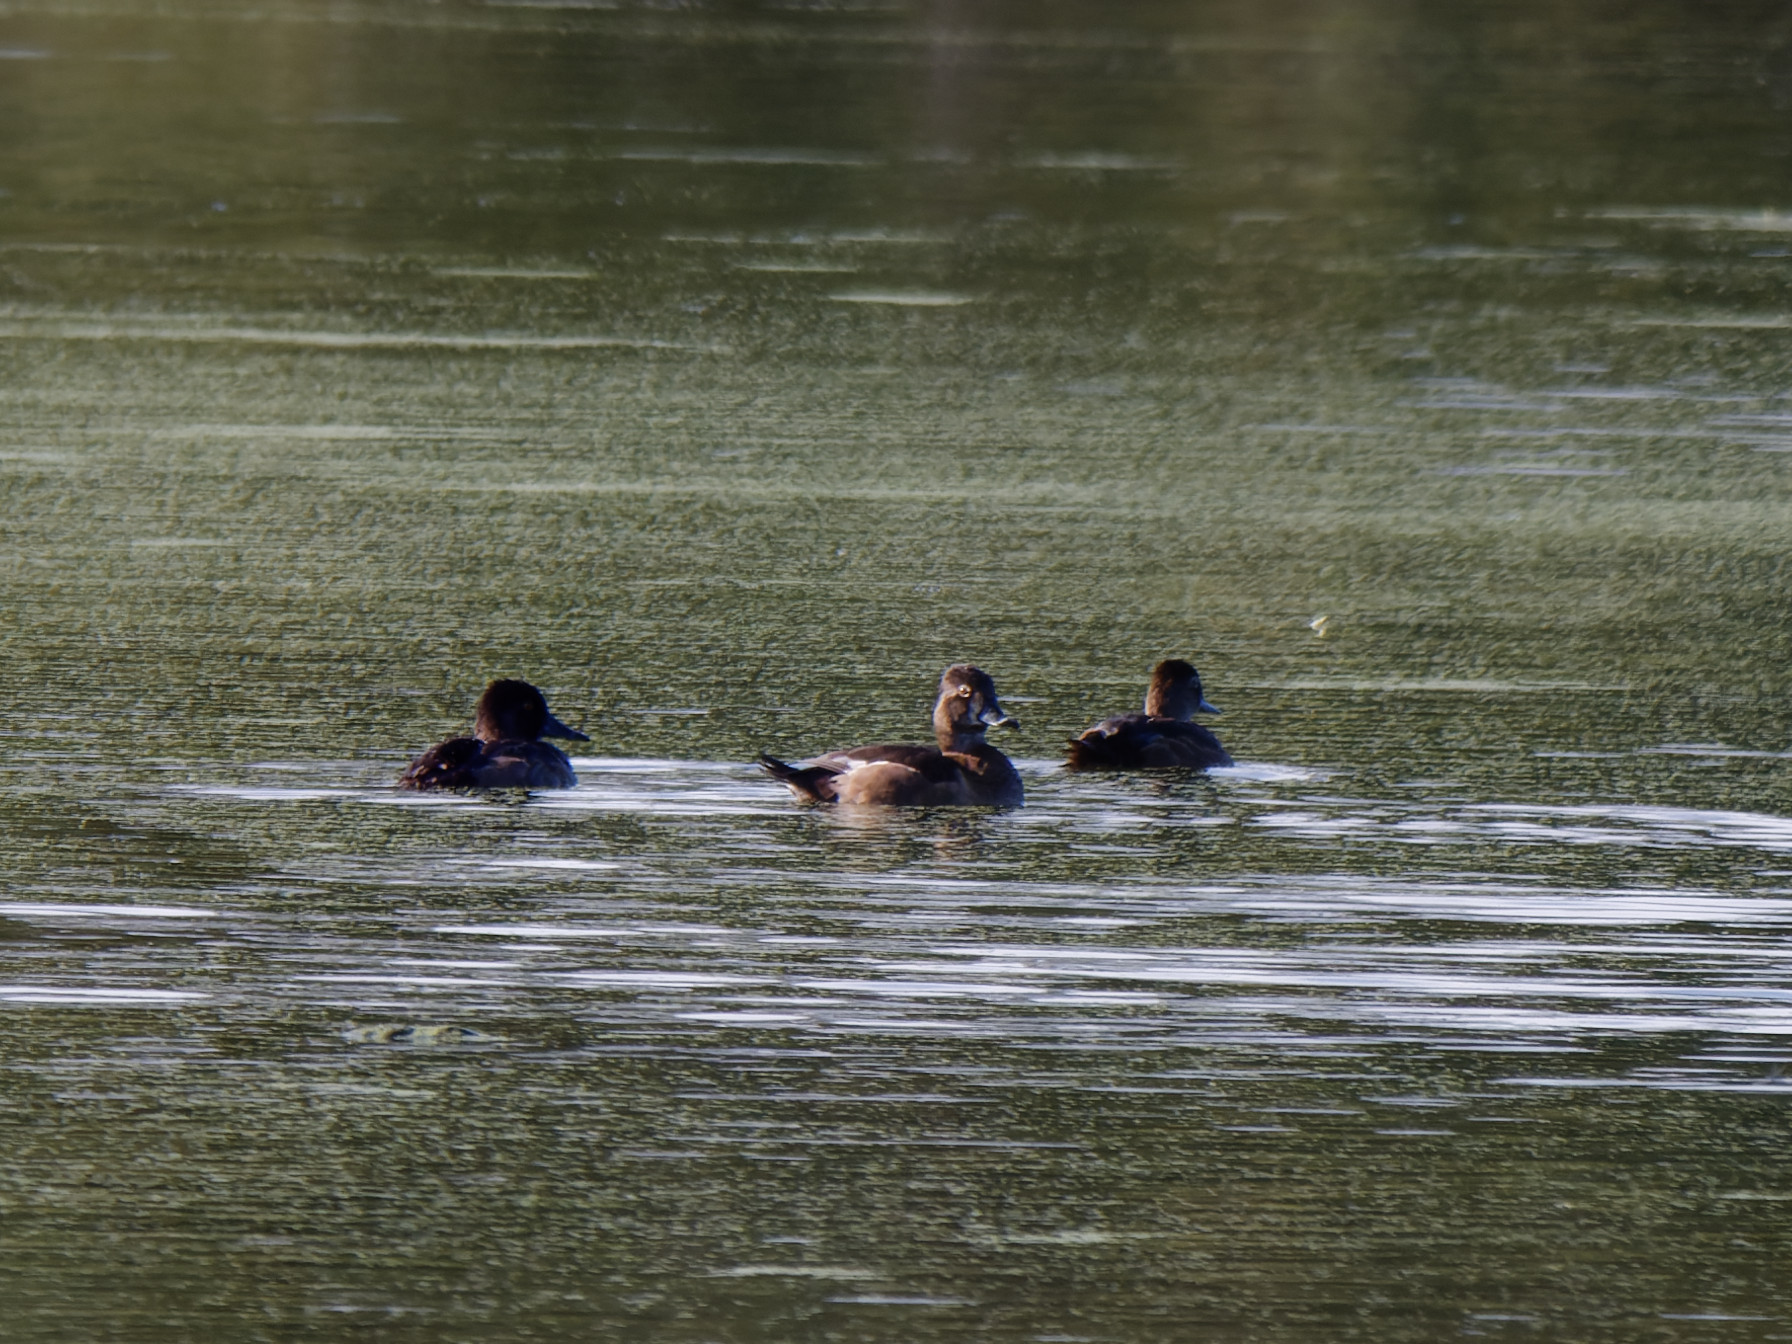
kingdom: Animalia
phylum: Chordata
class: Aves
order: Anseriformes
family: Anatidae
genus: Aythya
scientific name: Aythya collaris
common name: Ring-necked duck
